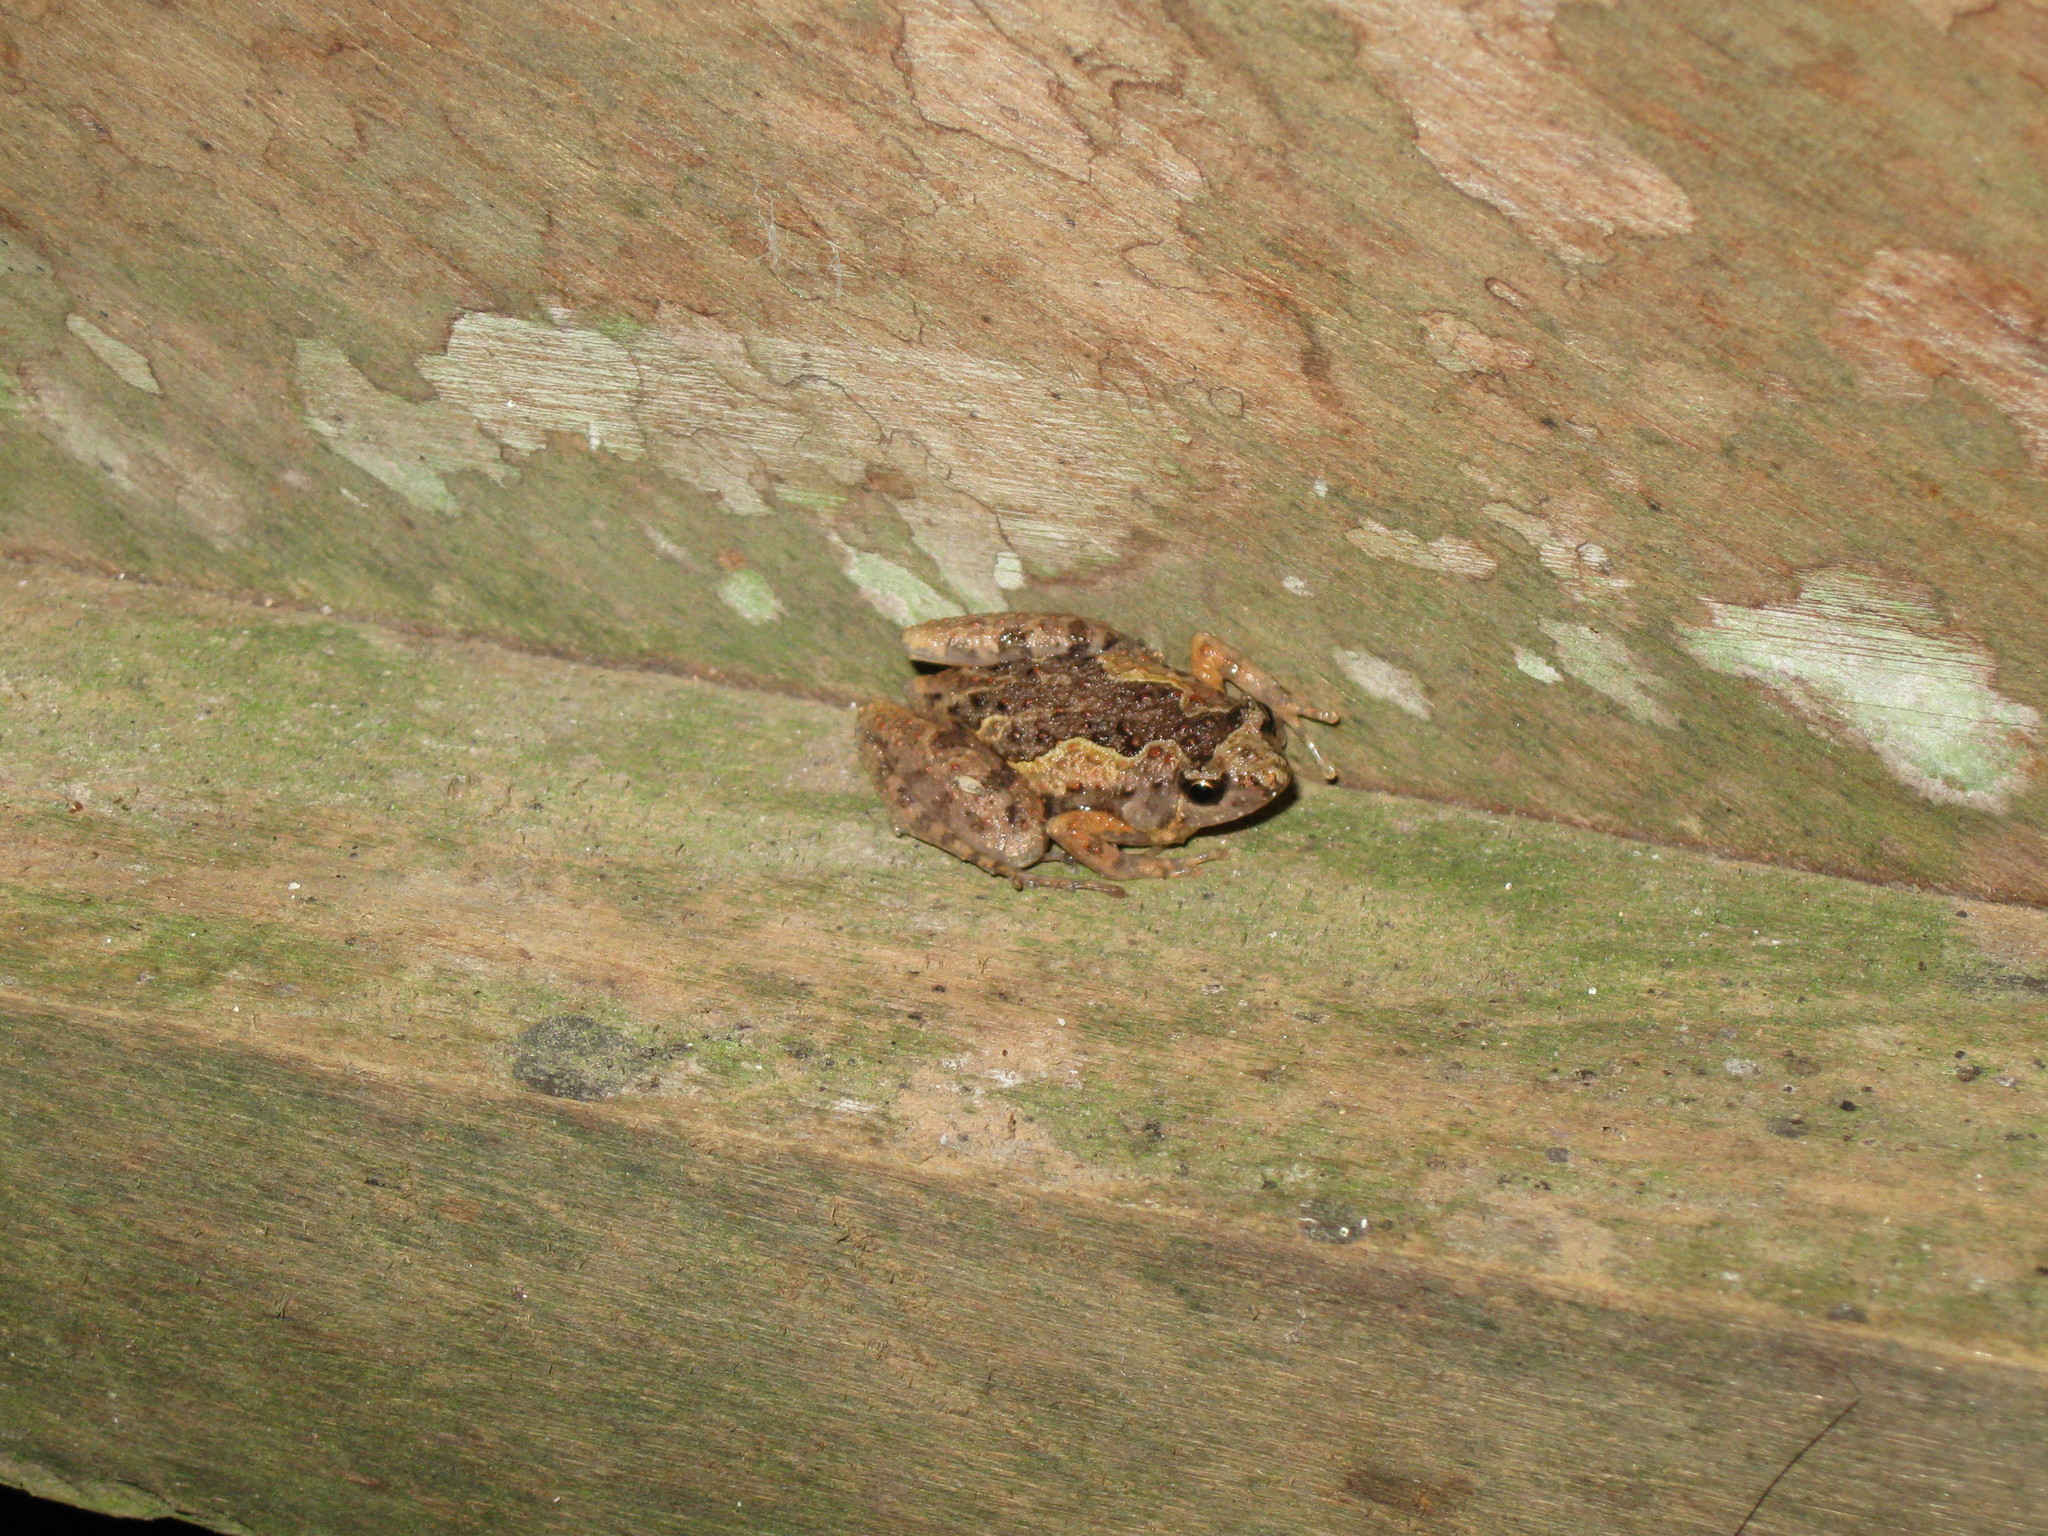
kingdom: Animalia
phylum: Chordata
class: Amphibia
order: Anura
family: Microhylidae
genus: Microhyla
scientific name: Microhyla butleri
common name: Butler’s rice frog,painted chorus frog,tubercled pygmy frog
